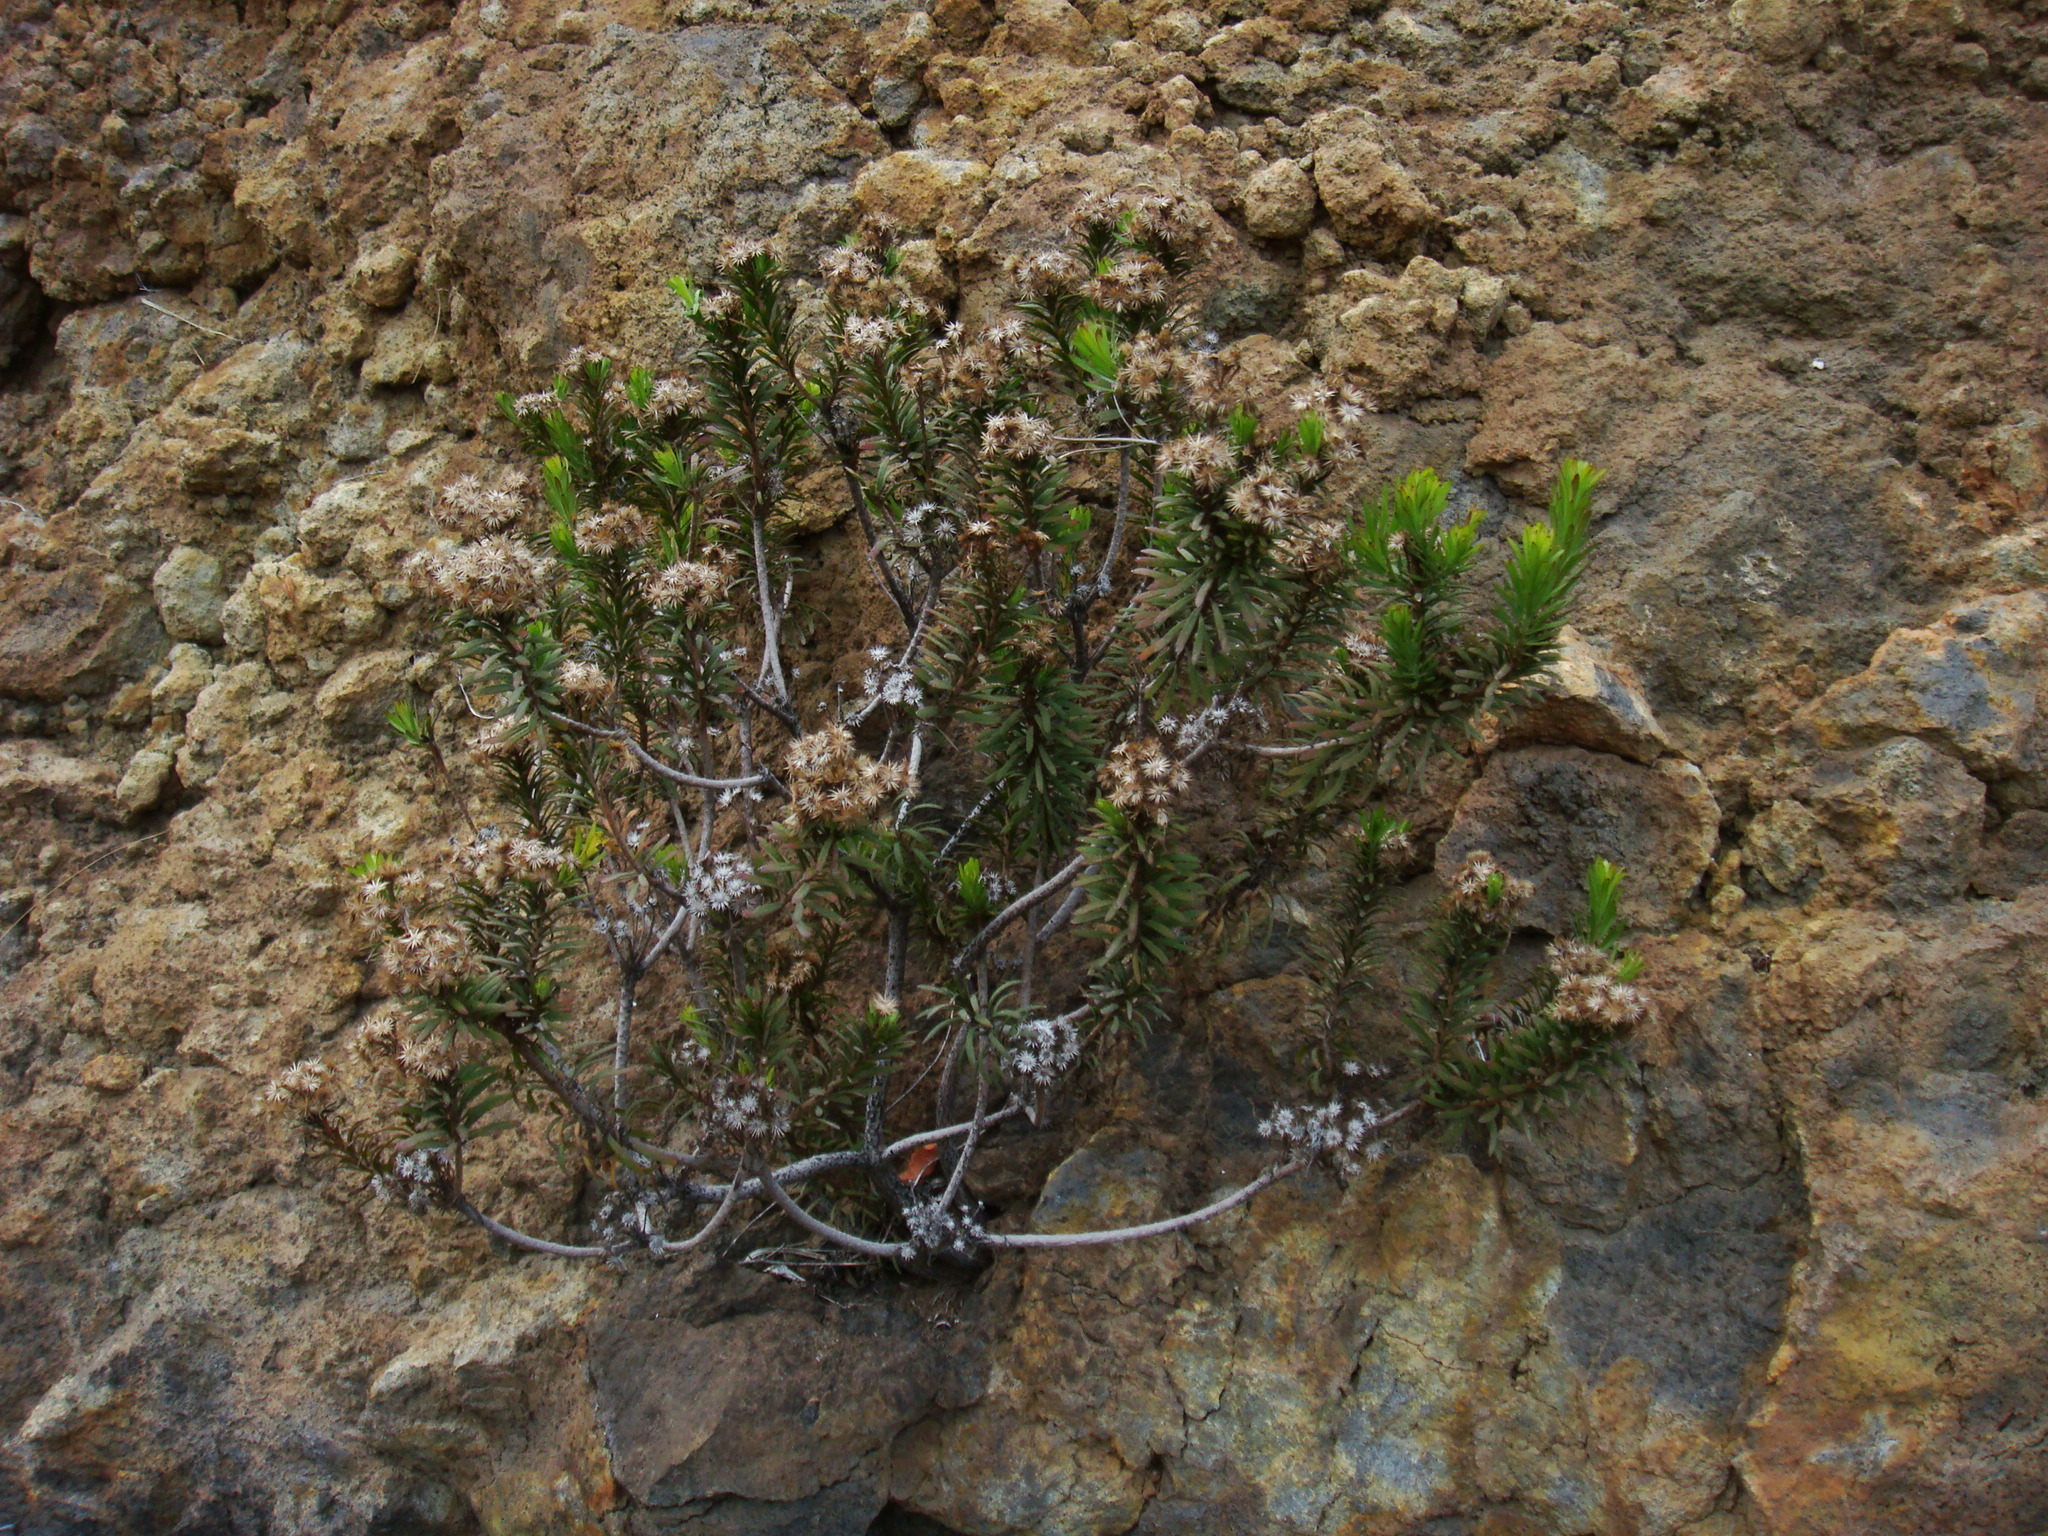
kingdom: Plantae
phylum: Tracheophyta
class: Magnoliopsida
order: Asterales
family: Asteraceae
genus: Allagopappus
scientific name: Allagopappus canariensis
